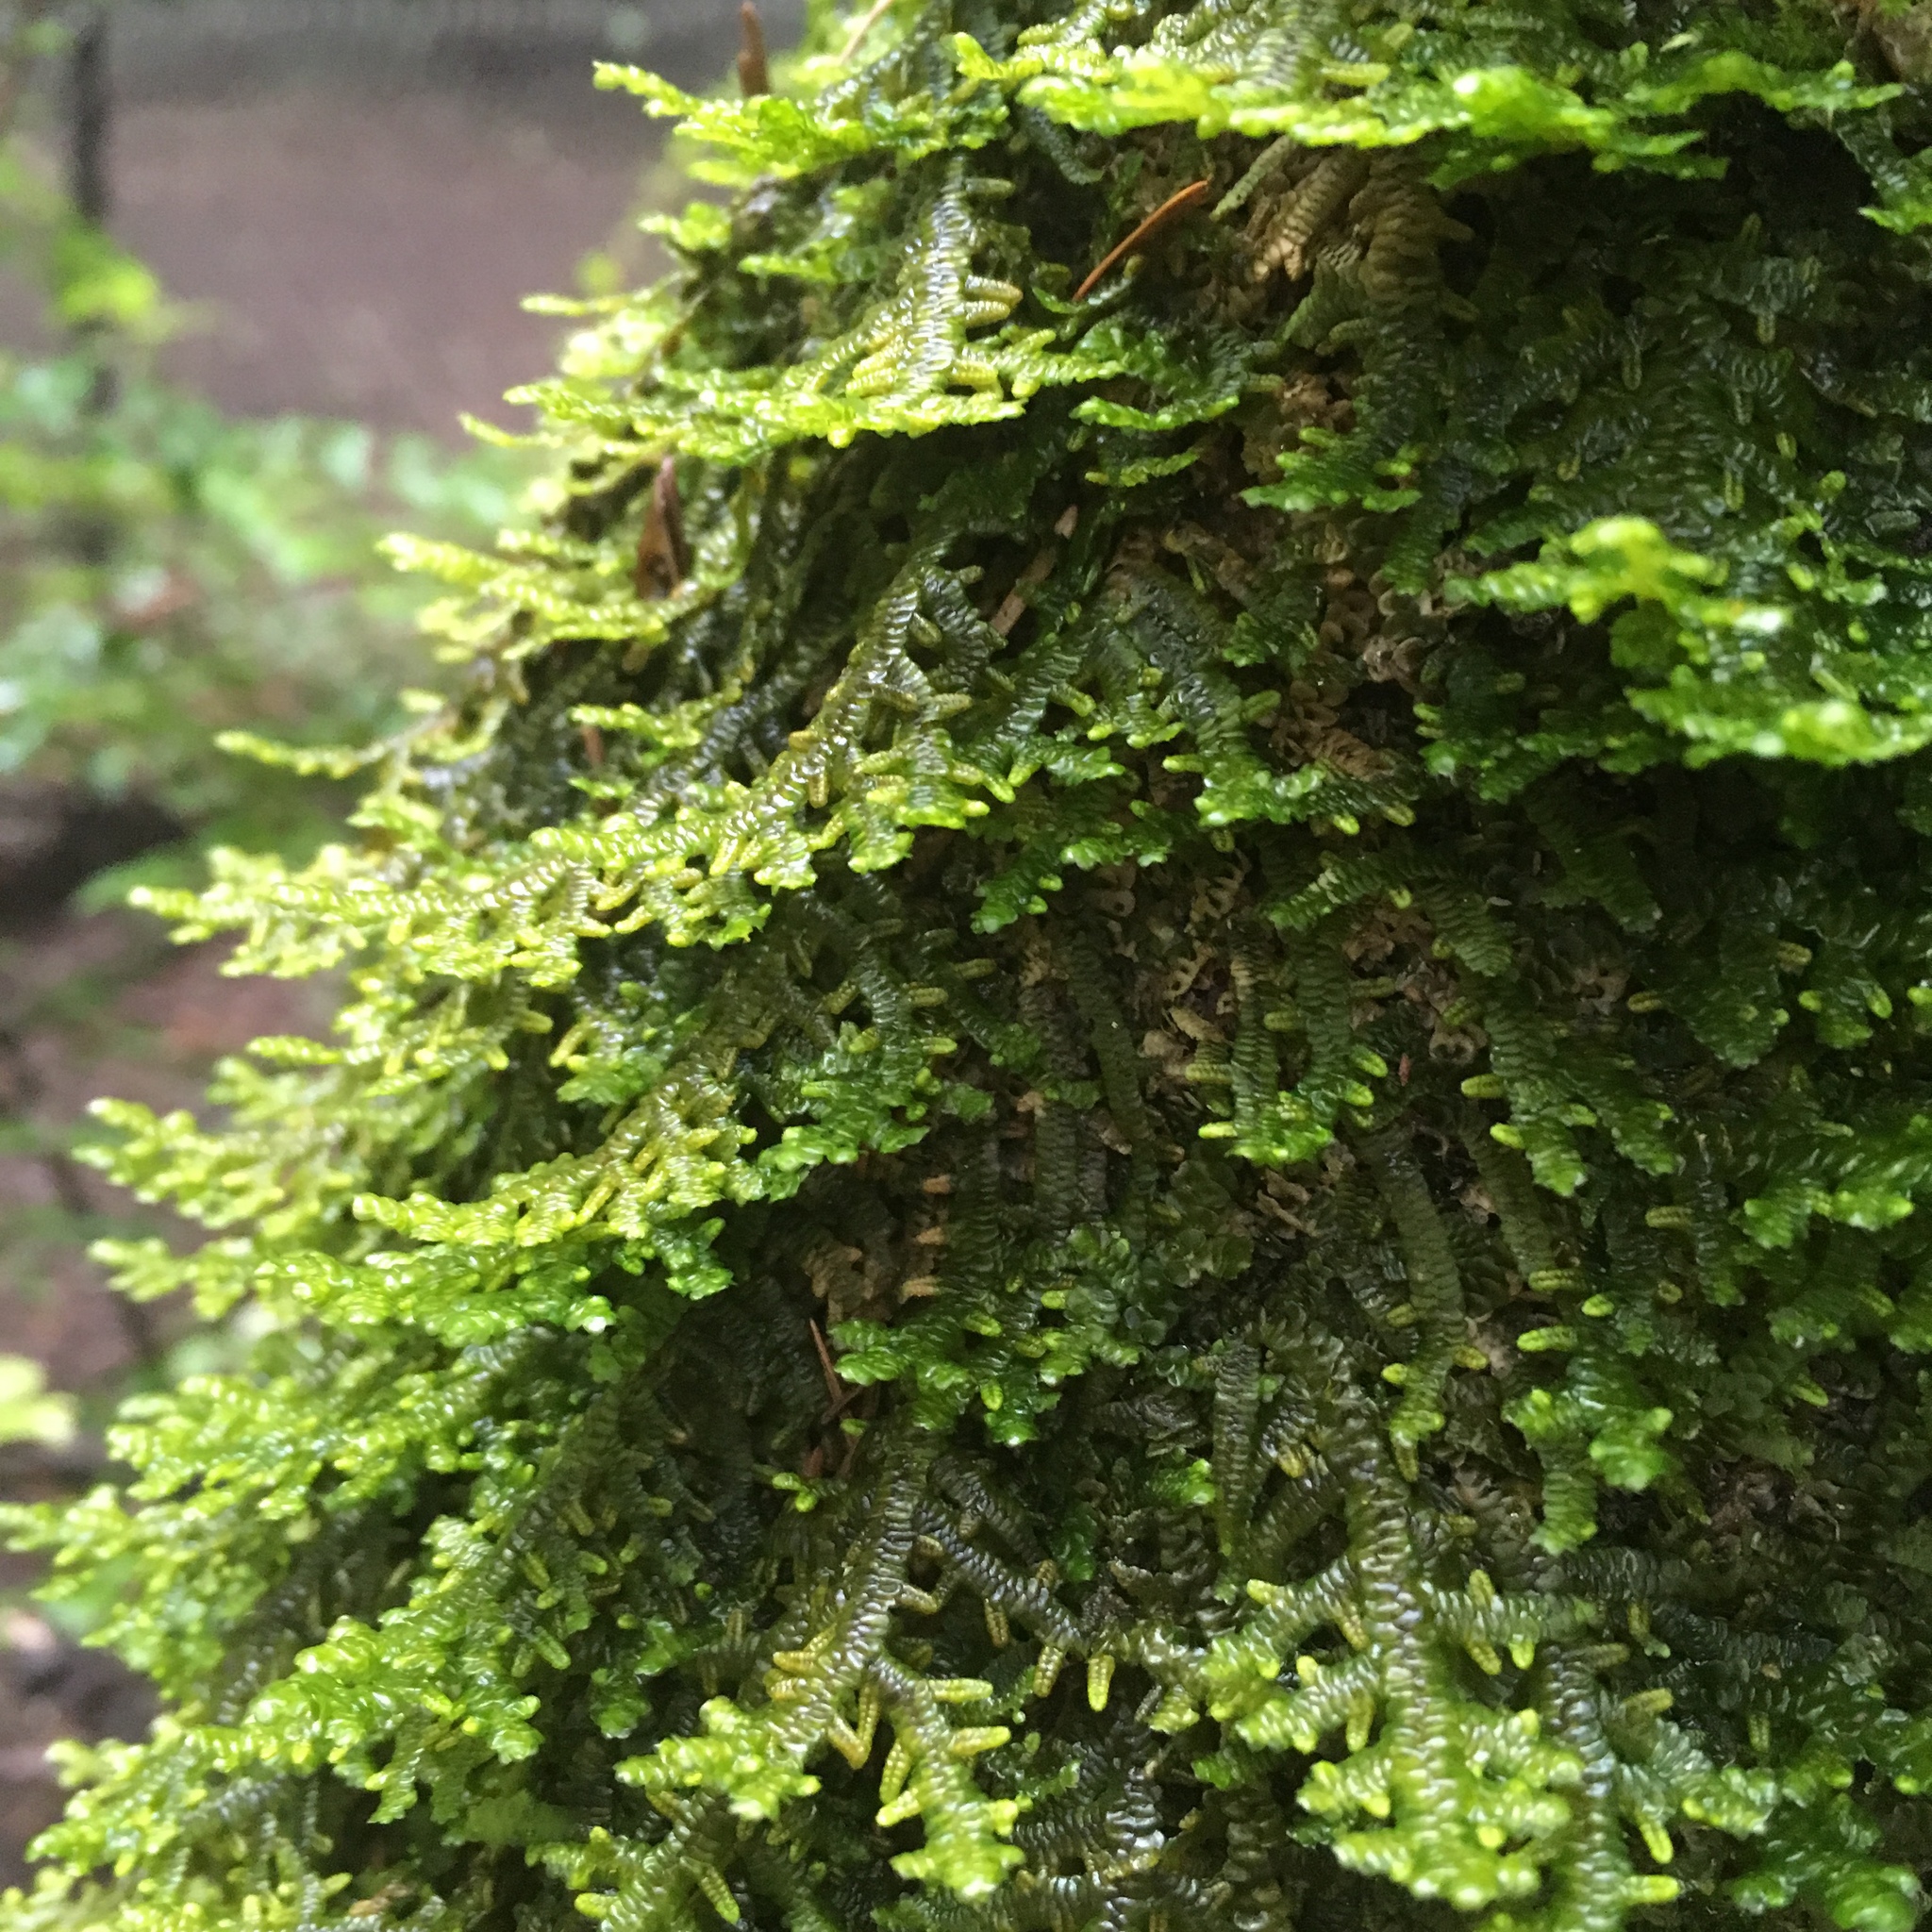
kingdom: Plantae
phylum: Marchantiophyta
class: Jungermanniopsida
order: Porellales
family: Porellaceae
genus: Porella
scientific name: Porella navicularis
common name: Tree ruffle liverwort
